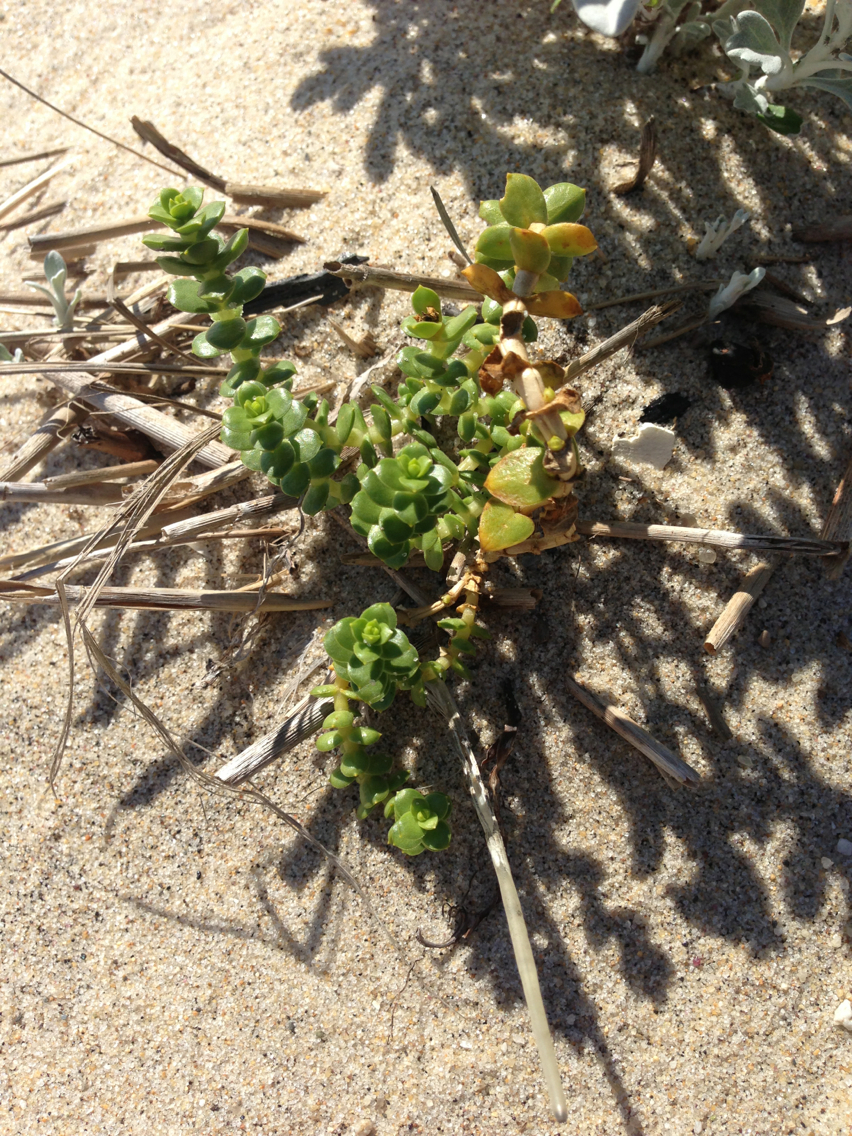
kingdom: Plantae
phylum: Tracheophyta
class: Magnoliopsida
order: Caryophyllales
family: Caryophyllaceae
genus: Honckenya
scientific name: Honckenya peploides
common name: Sea sandwort
